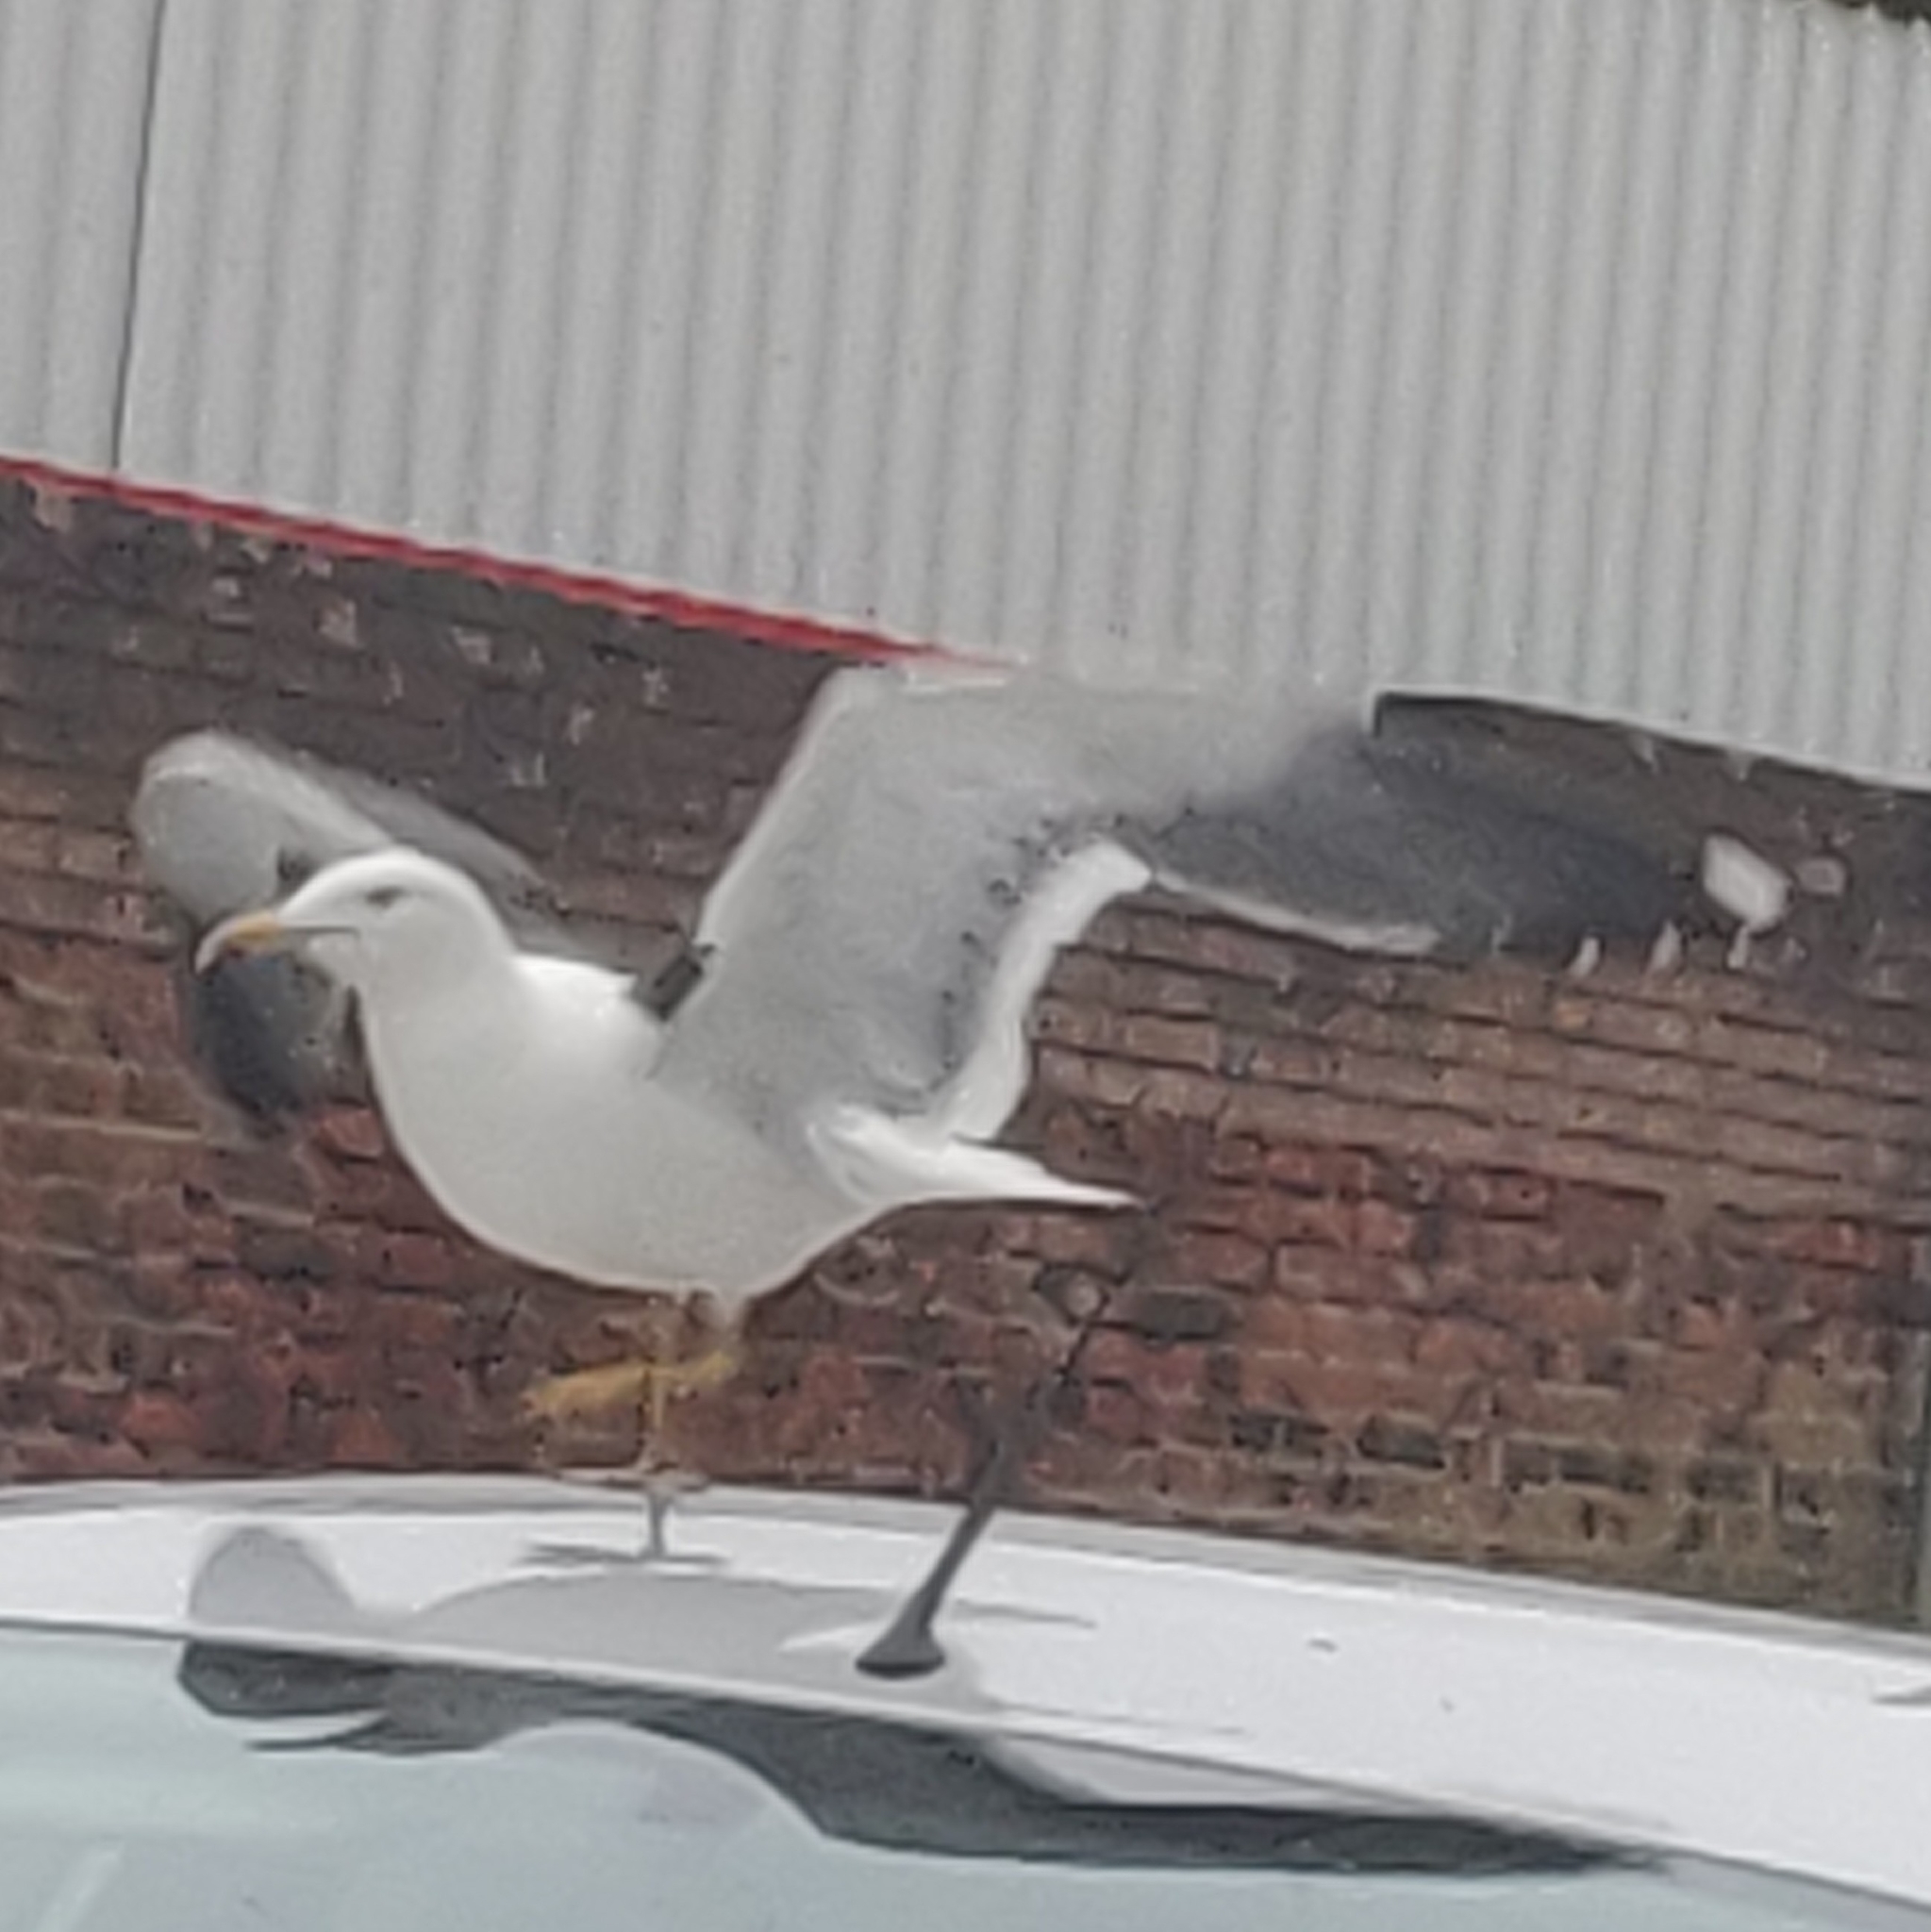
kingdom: Animalia
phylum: Chordata
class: Aves
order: Charadriiformes
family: Laridae
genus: Larus
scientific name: Larus fuscus
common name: Lesser black-backed gull
